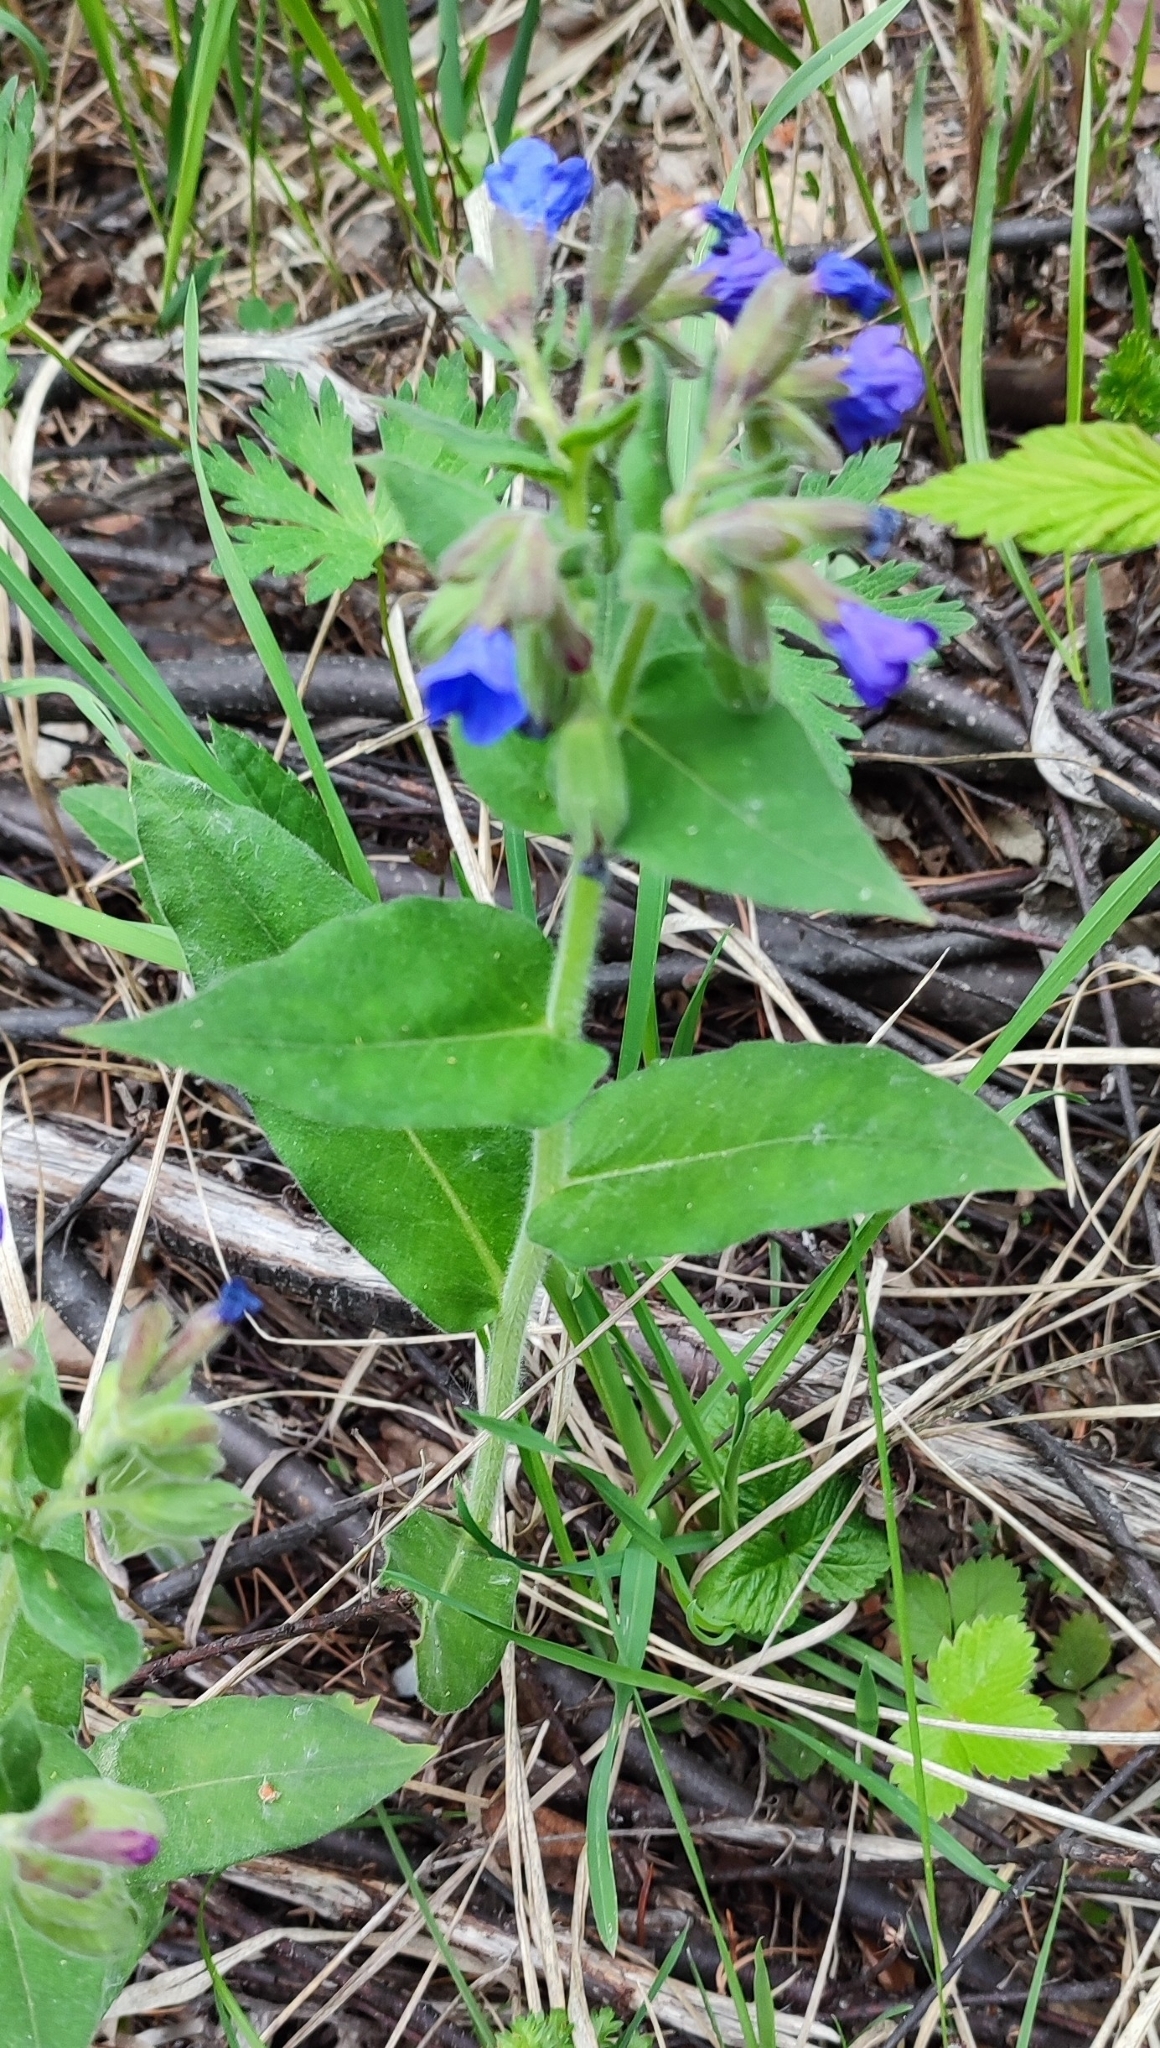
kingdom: Plantae
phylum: Tracheophyta
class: Magnoliopsida
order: Boraginales
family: Boraginaceae
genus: Pulmonaria
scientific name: Pulmonaria mollis
